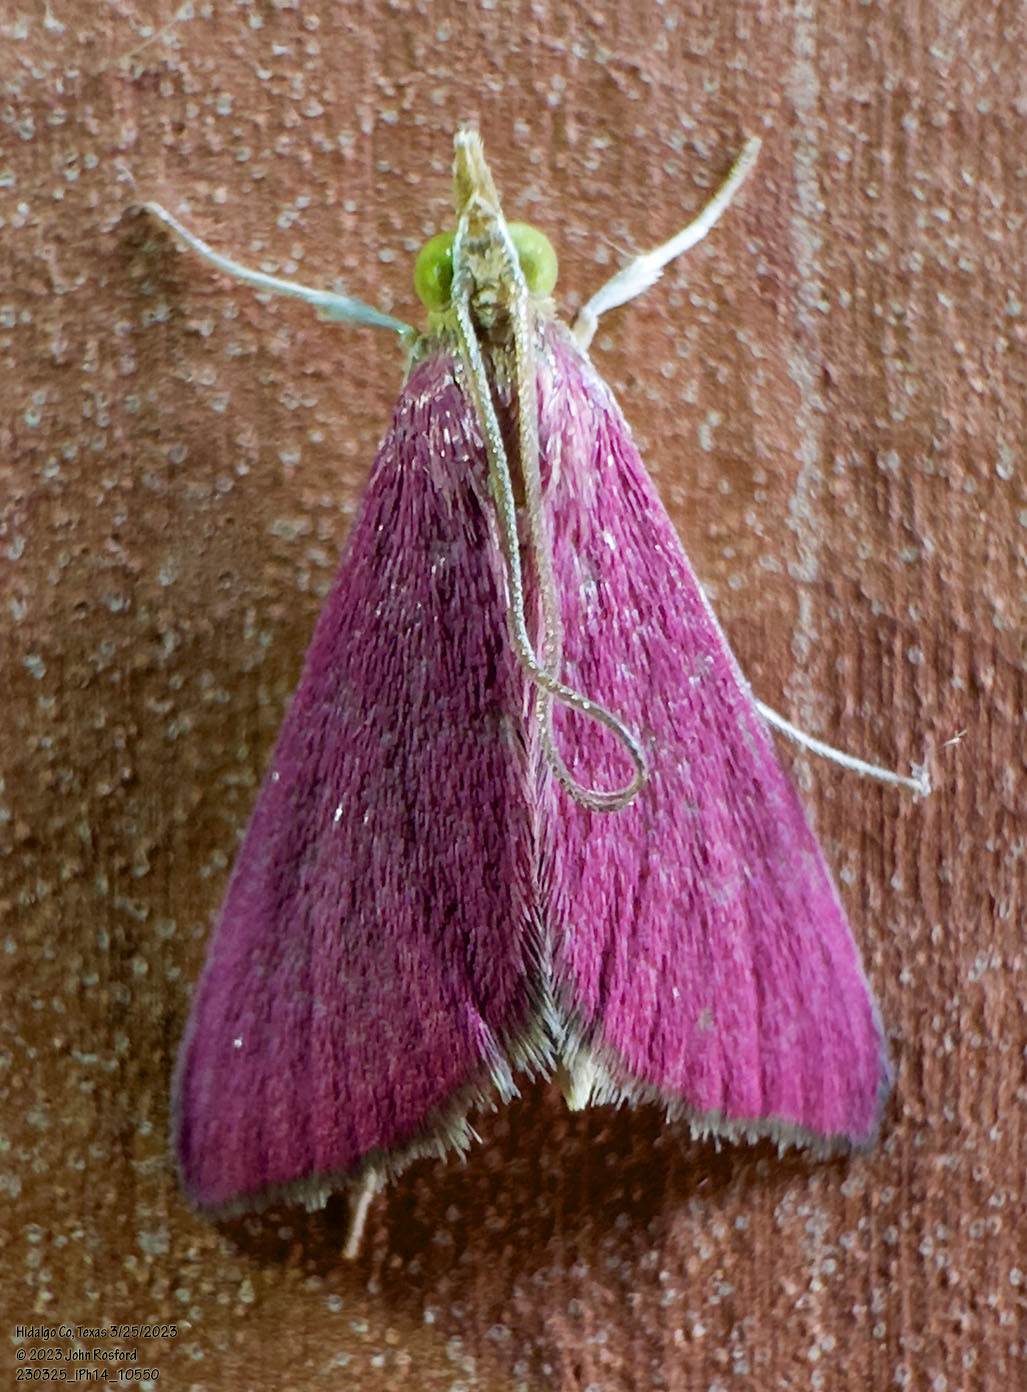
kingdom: Animalia
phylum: Arthropoda
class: Insecta
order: Lepidoptera
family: Crambidae
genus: Pyrausta
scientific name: Pyrausta inornatalis
